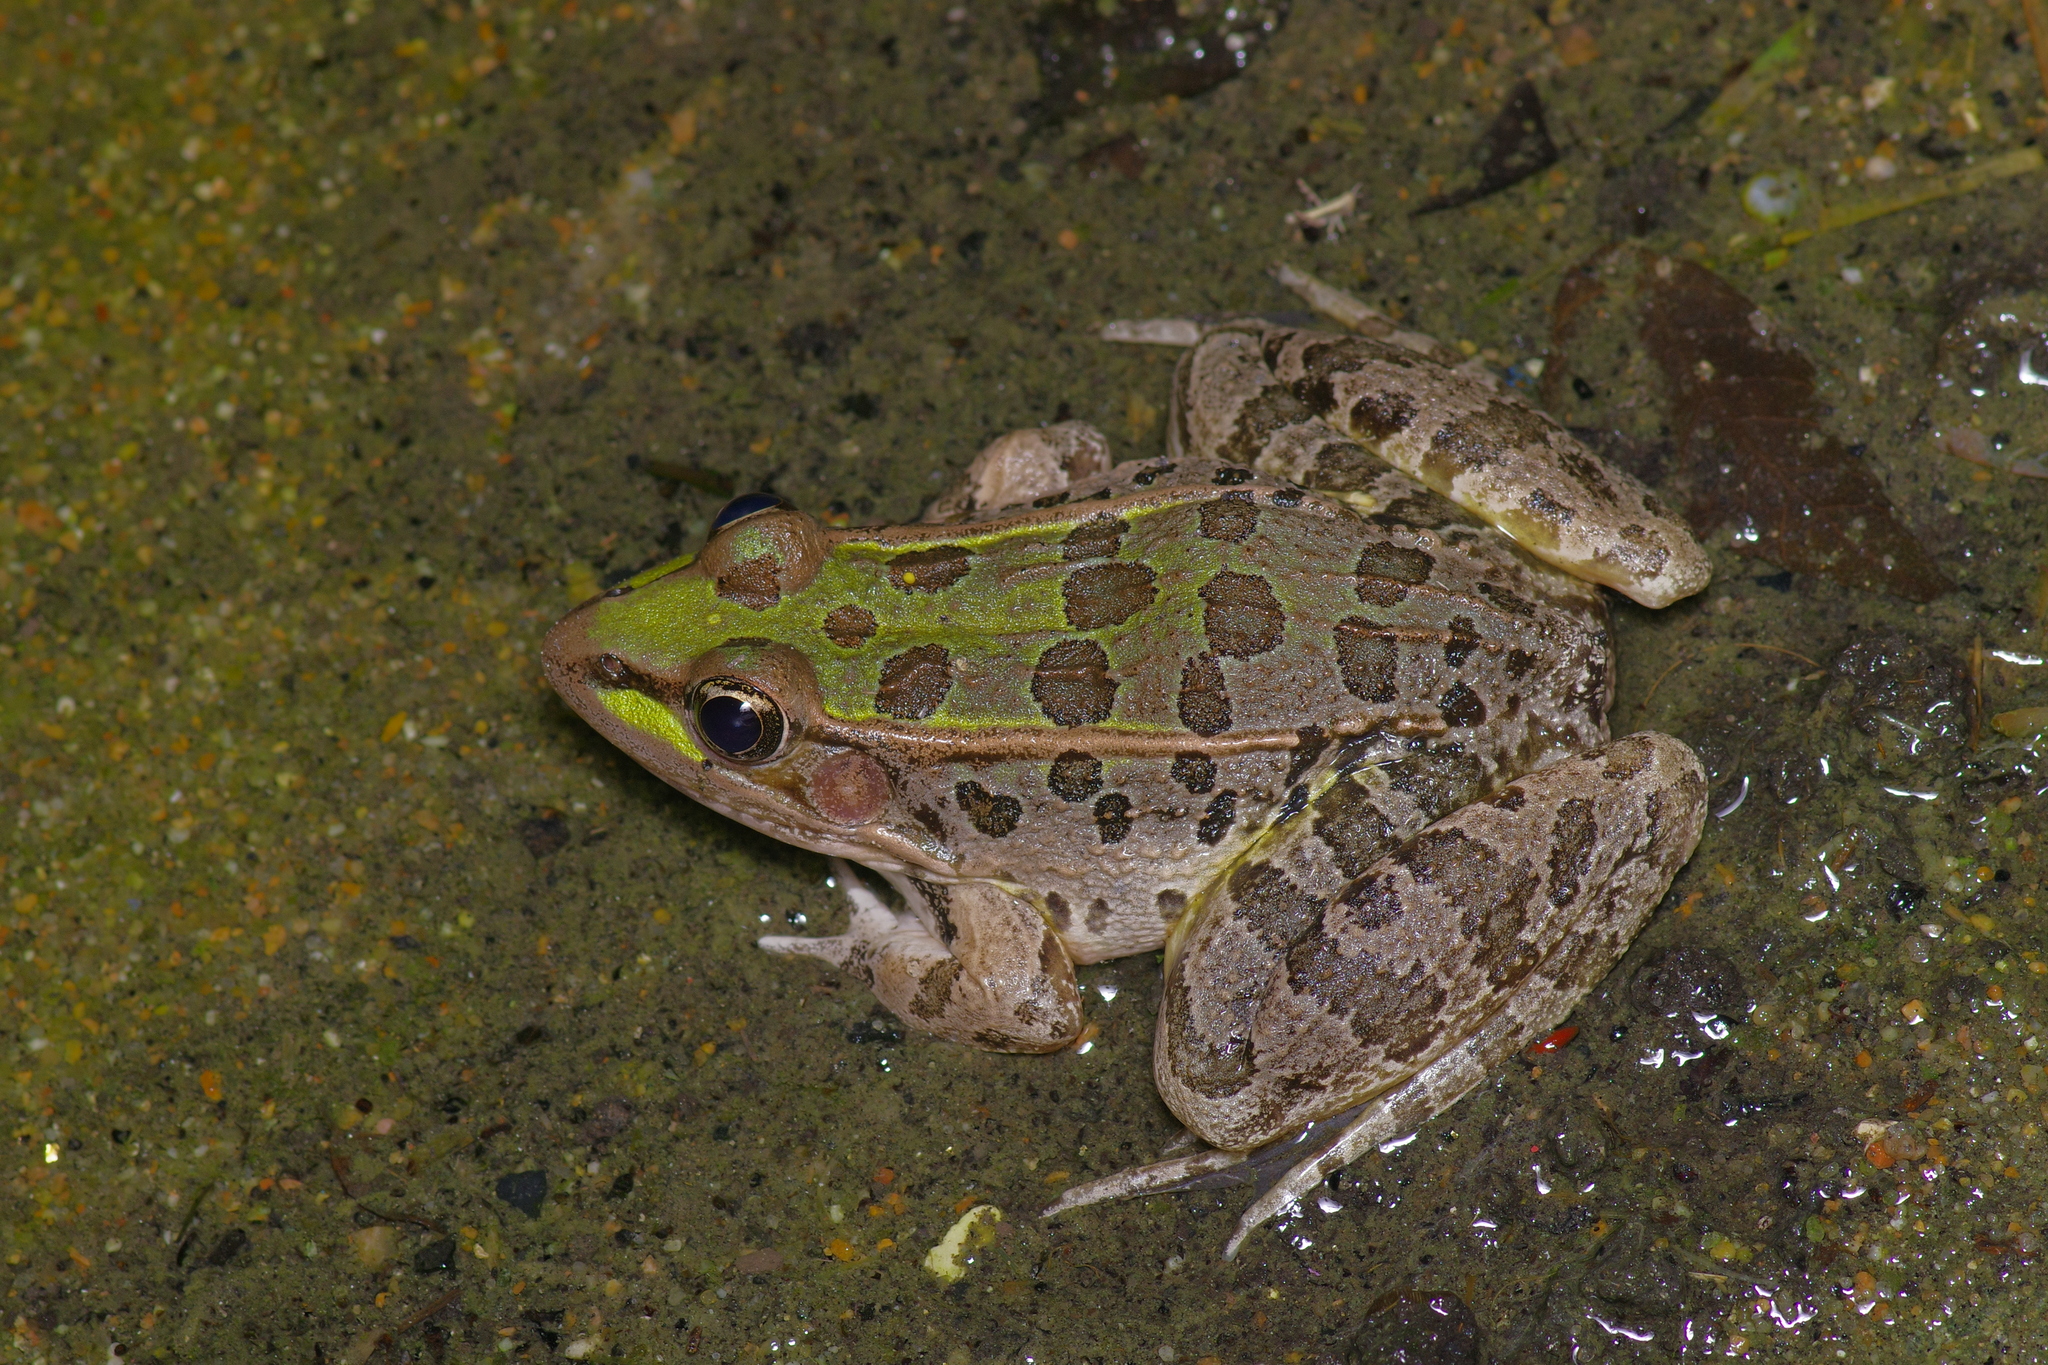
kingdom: Animalia
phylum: Chordata
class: Amphibia
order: Anura
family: Ranidae
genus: Lithobates
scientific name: Lithobates berlandieri
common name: Rio grande leopard frog
